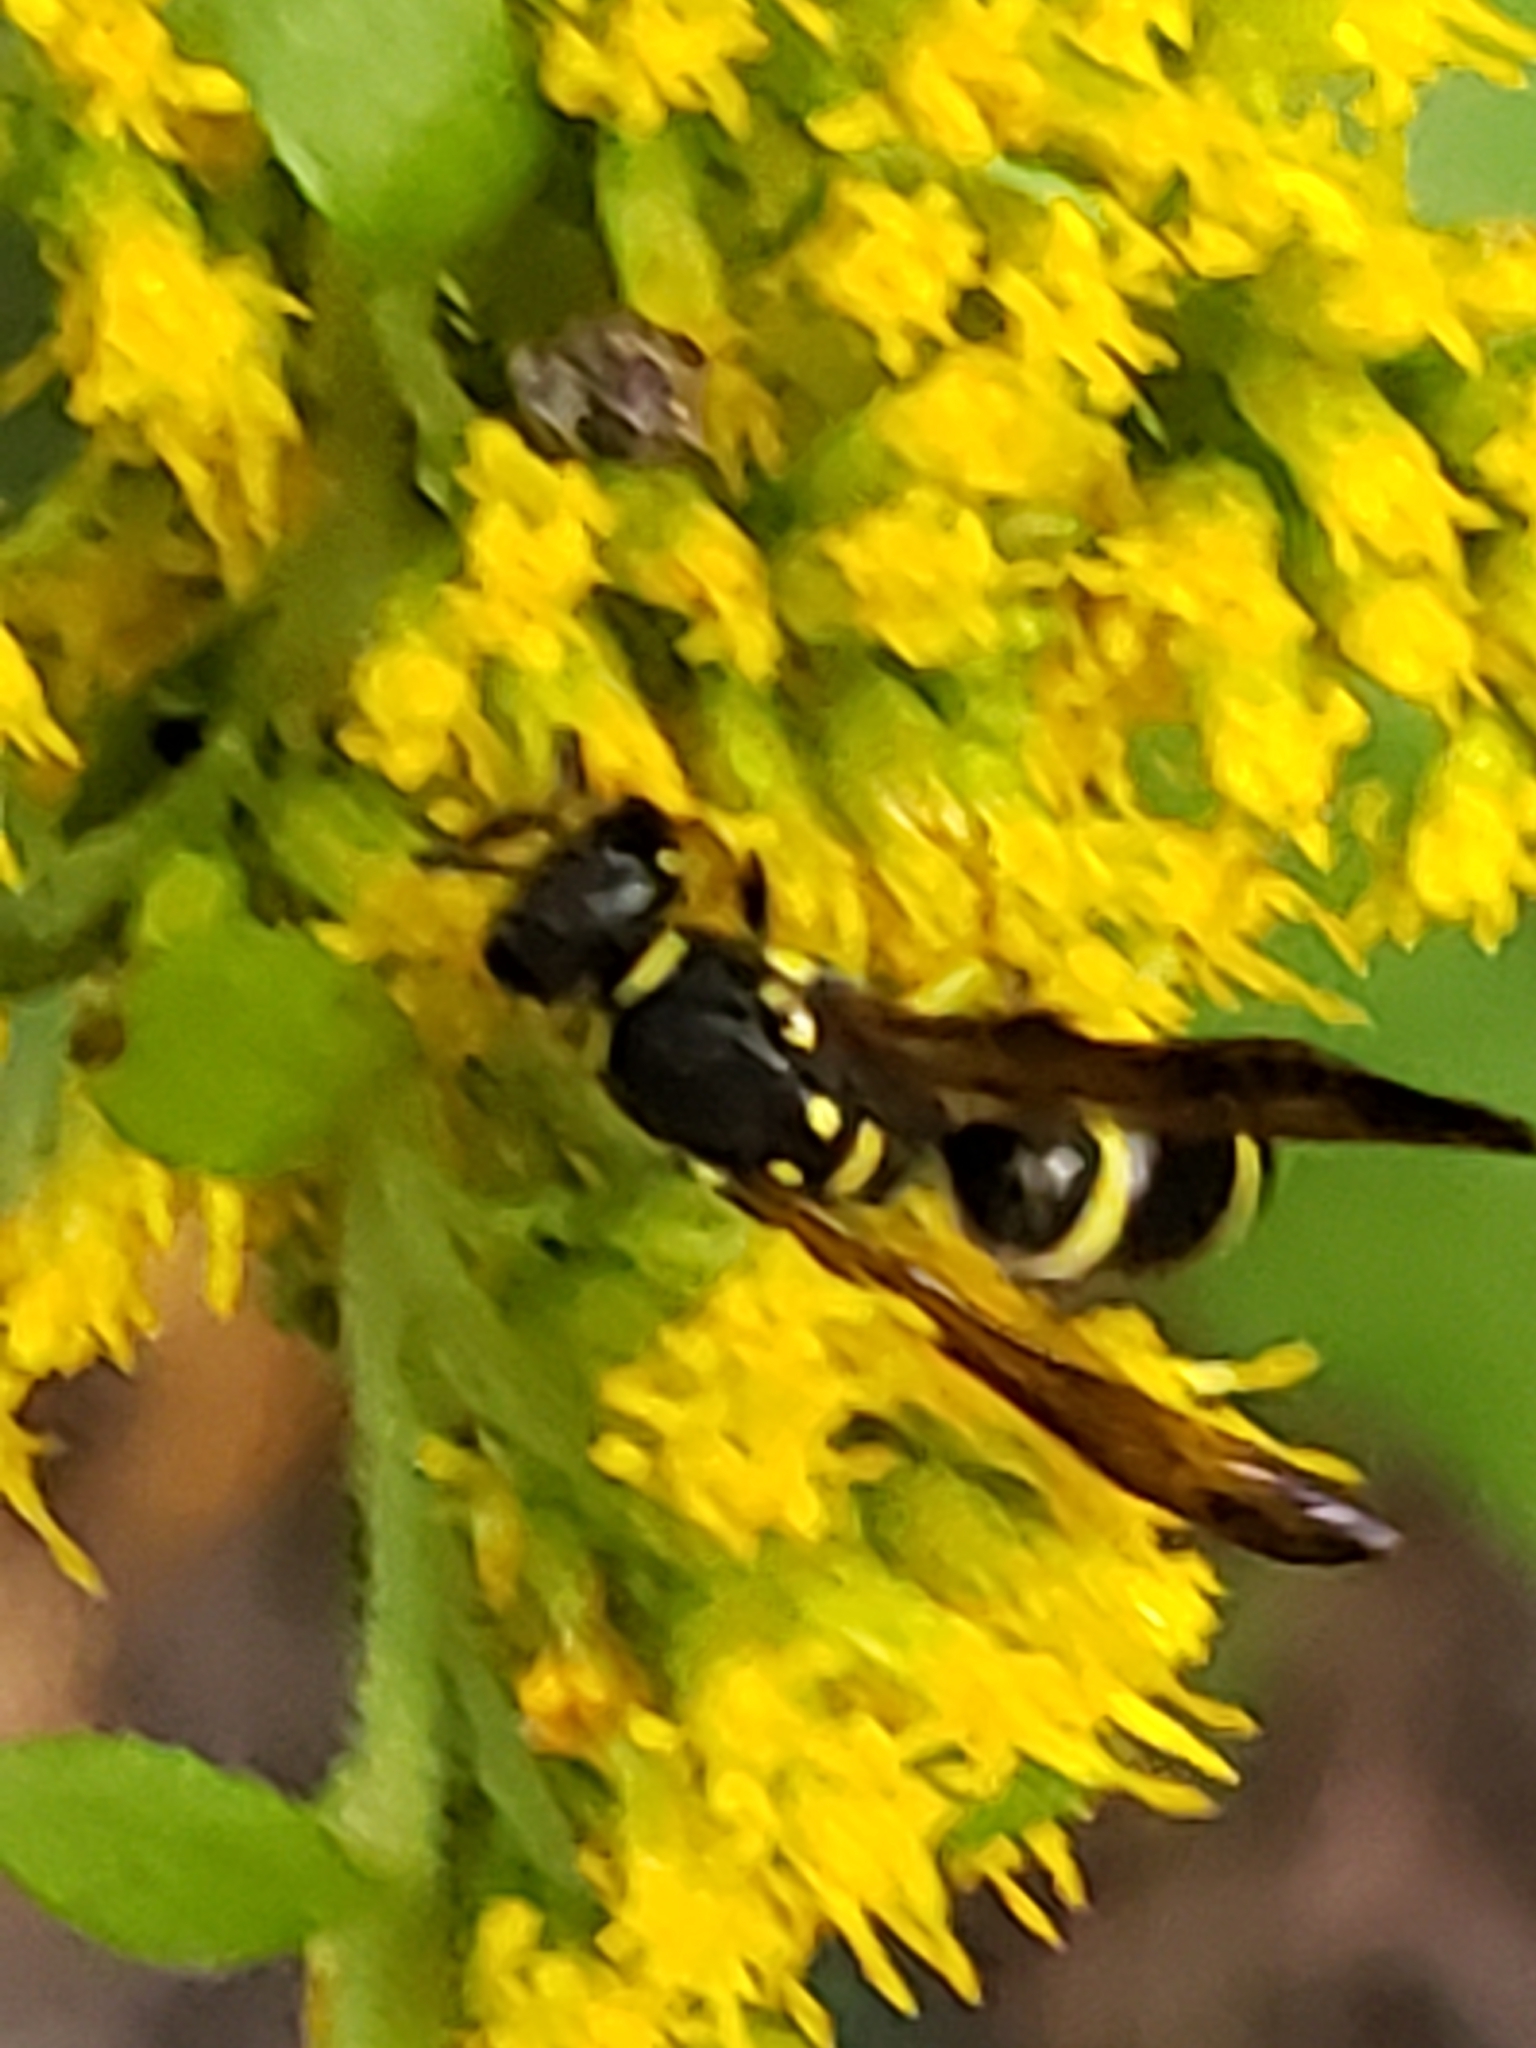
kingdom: Animalia
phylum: Arthropoda
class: Insecta
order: Hymenoptera
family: Vespidae
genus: Ancistrocerus
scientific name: Ancistrocerus adiabatus
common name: Bramble mason wasp
